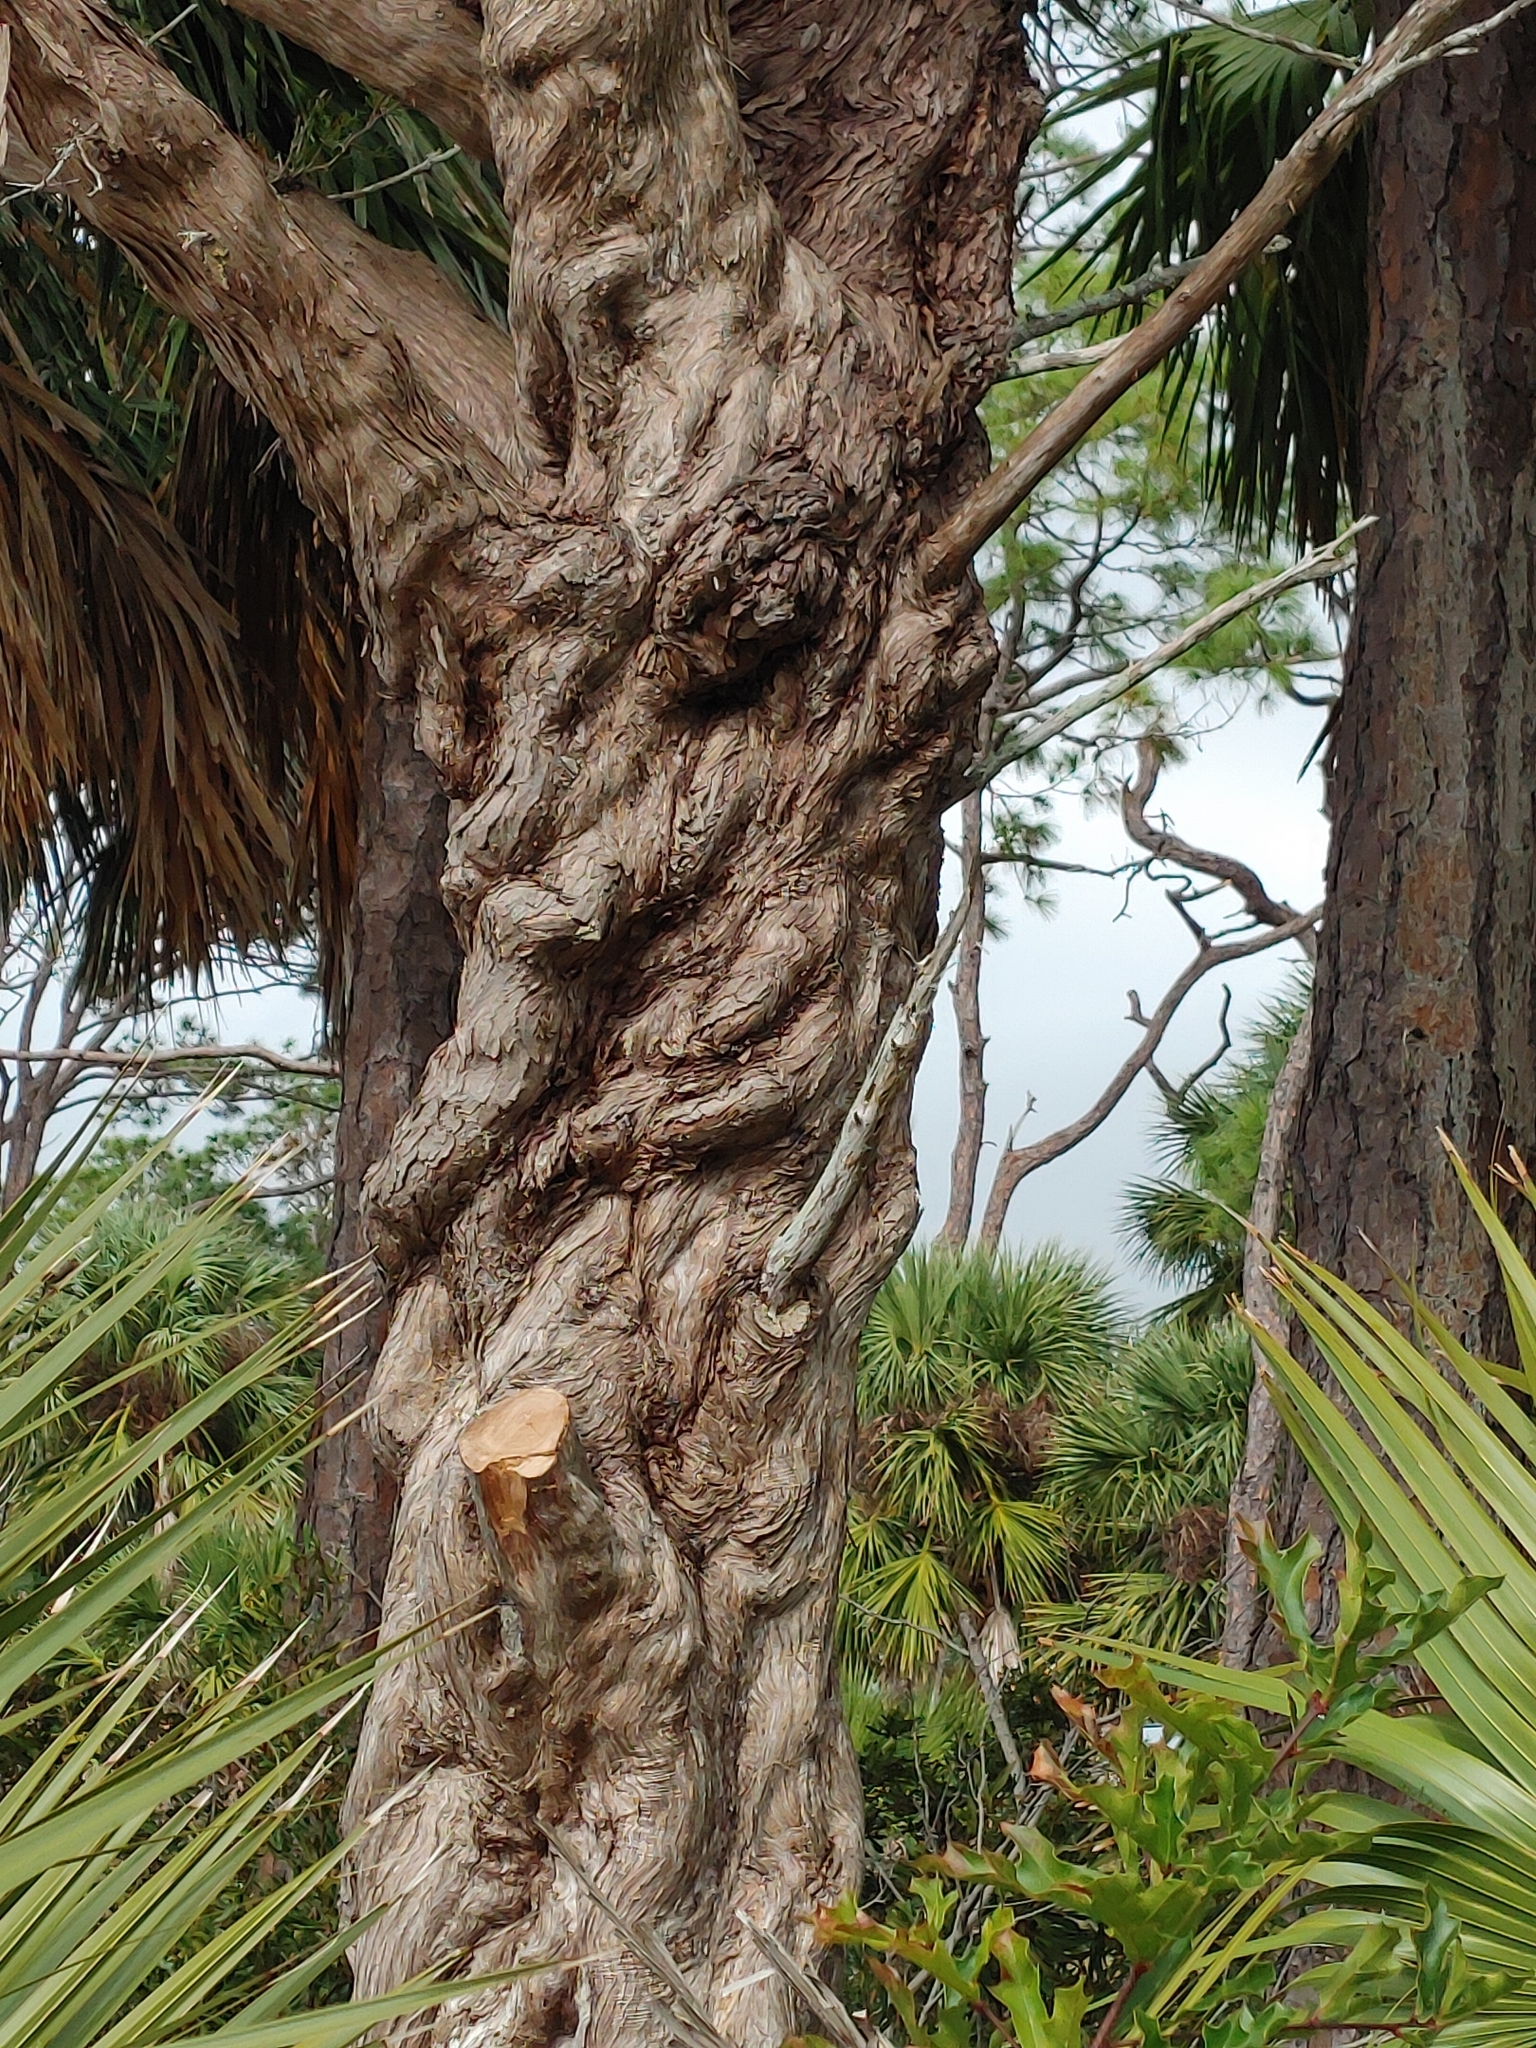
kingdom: Plantae
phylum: Tracheophyta
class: Pinopsida
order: Pinales
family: Cupressaceae
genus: Juniperus
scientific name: Juniperus virginiana
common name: Red juniper
